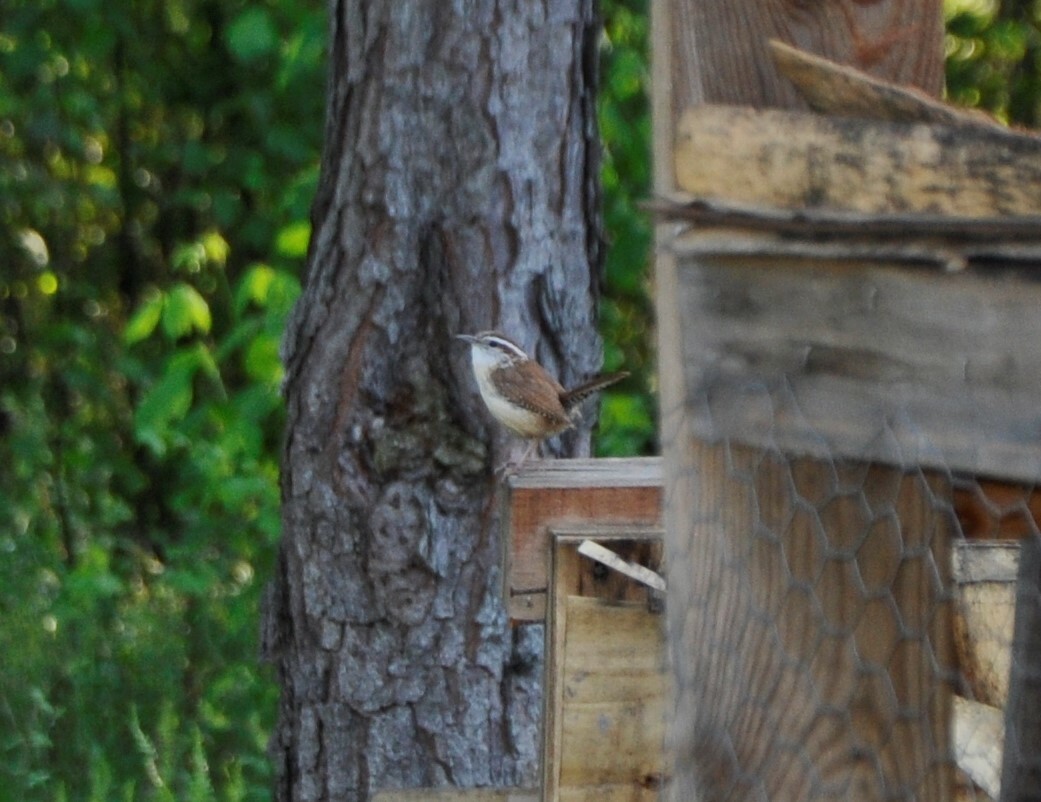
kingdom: Animalia
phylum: Chordata
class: Aves
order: Passeriformes
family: Troglodytidae
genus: Thryothorus
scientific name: Thryothorus ludovicianus
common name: Carolina wren
